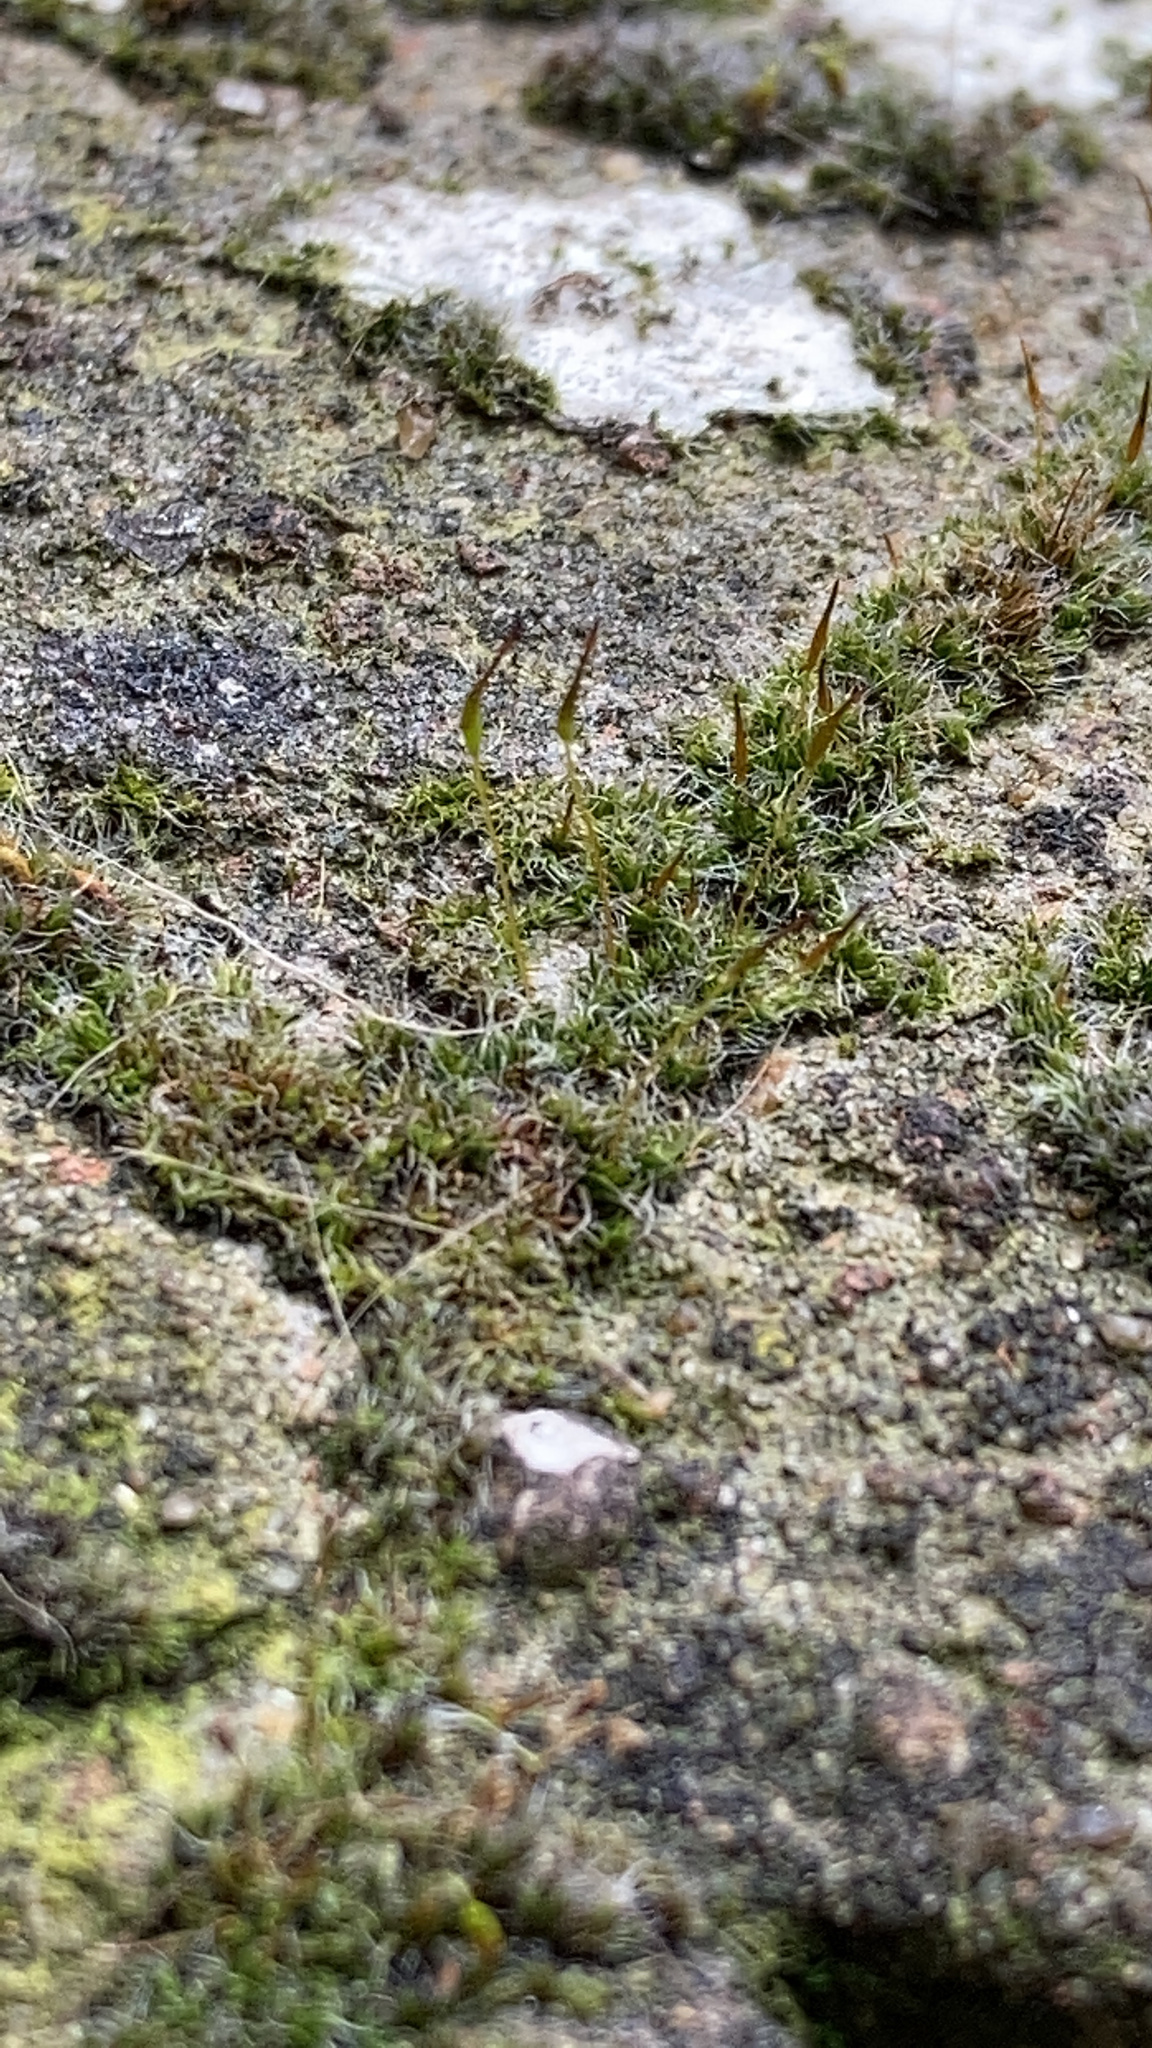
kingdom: Plantae
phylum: Bryophyta
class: Bryopsida
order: Pottiales
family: Pottiaceae
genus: Tortula
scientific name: Tortula muralis
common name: Wall screw-moss
